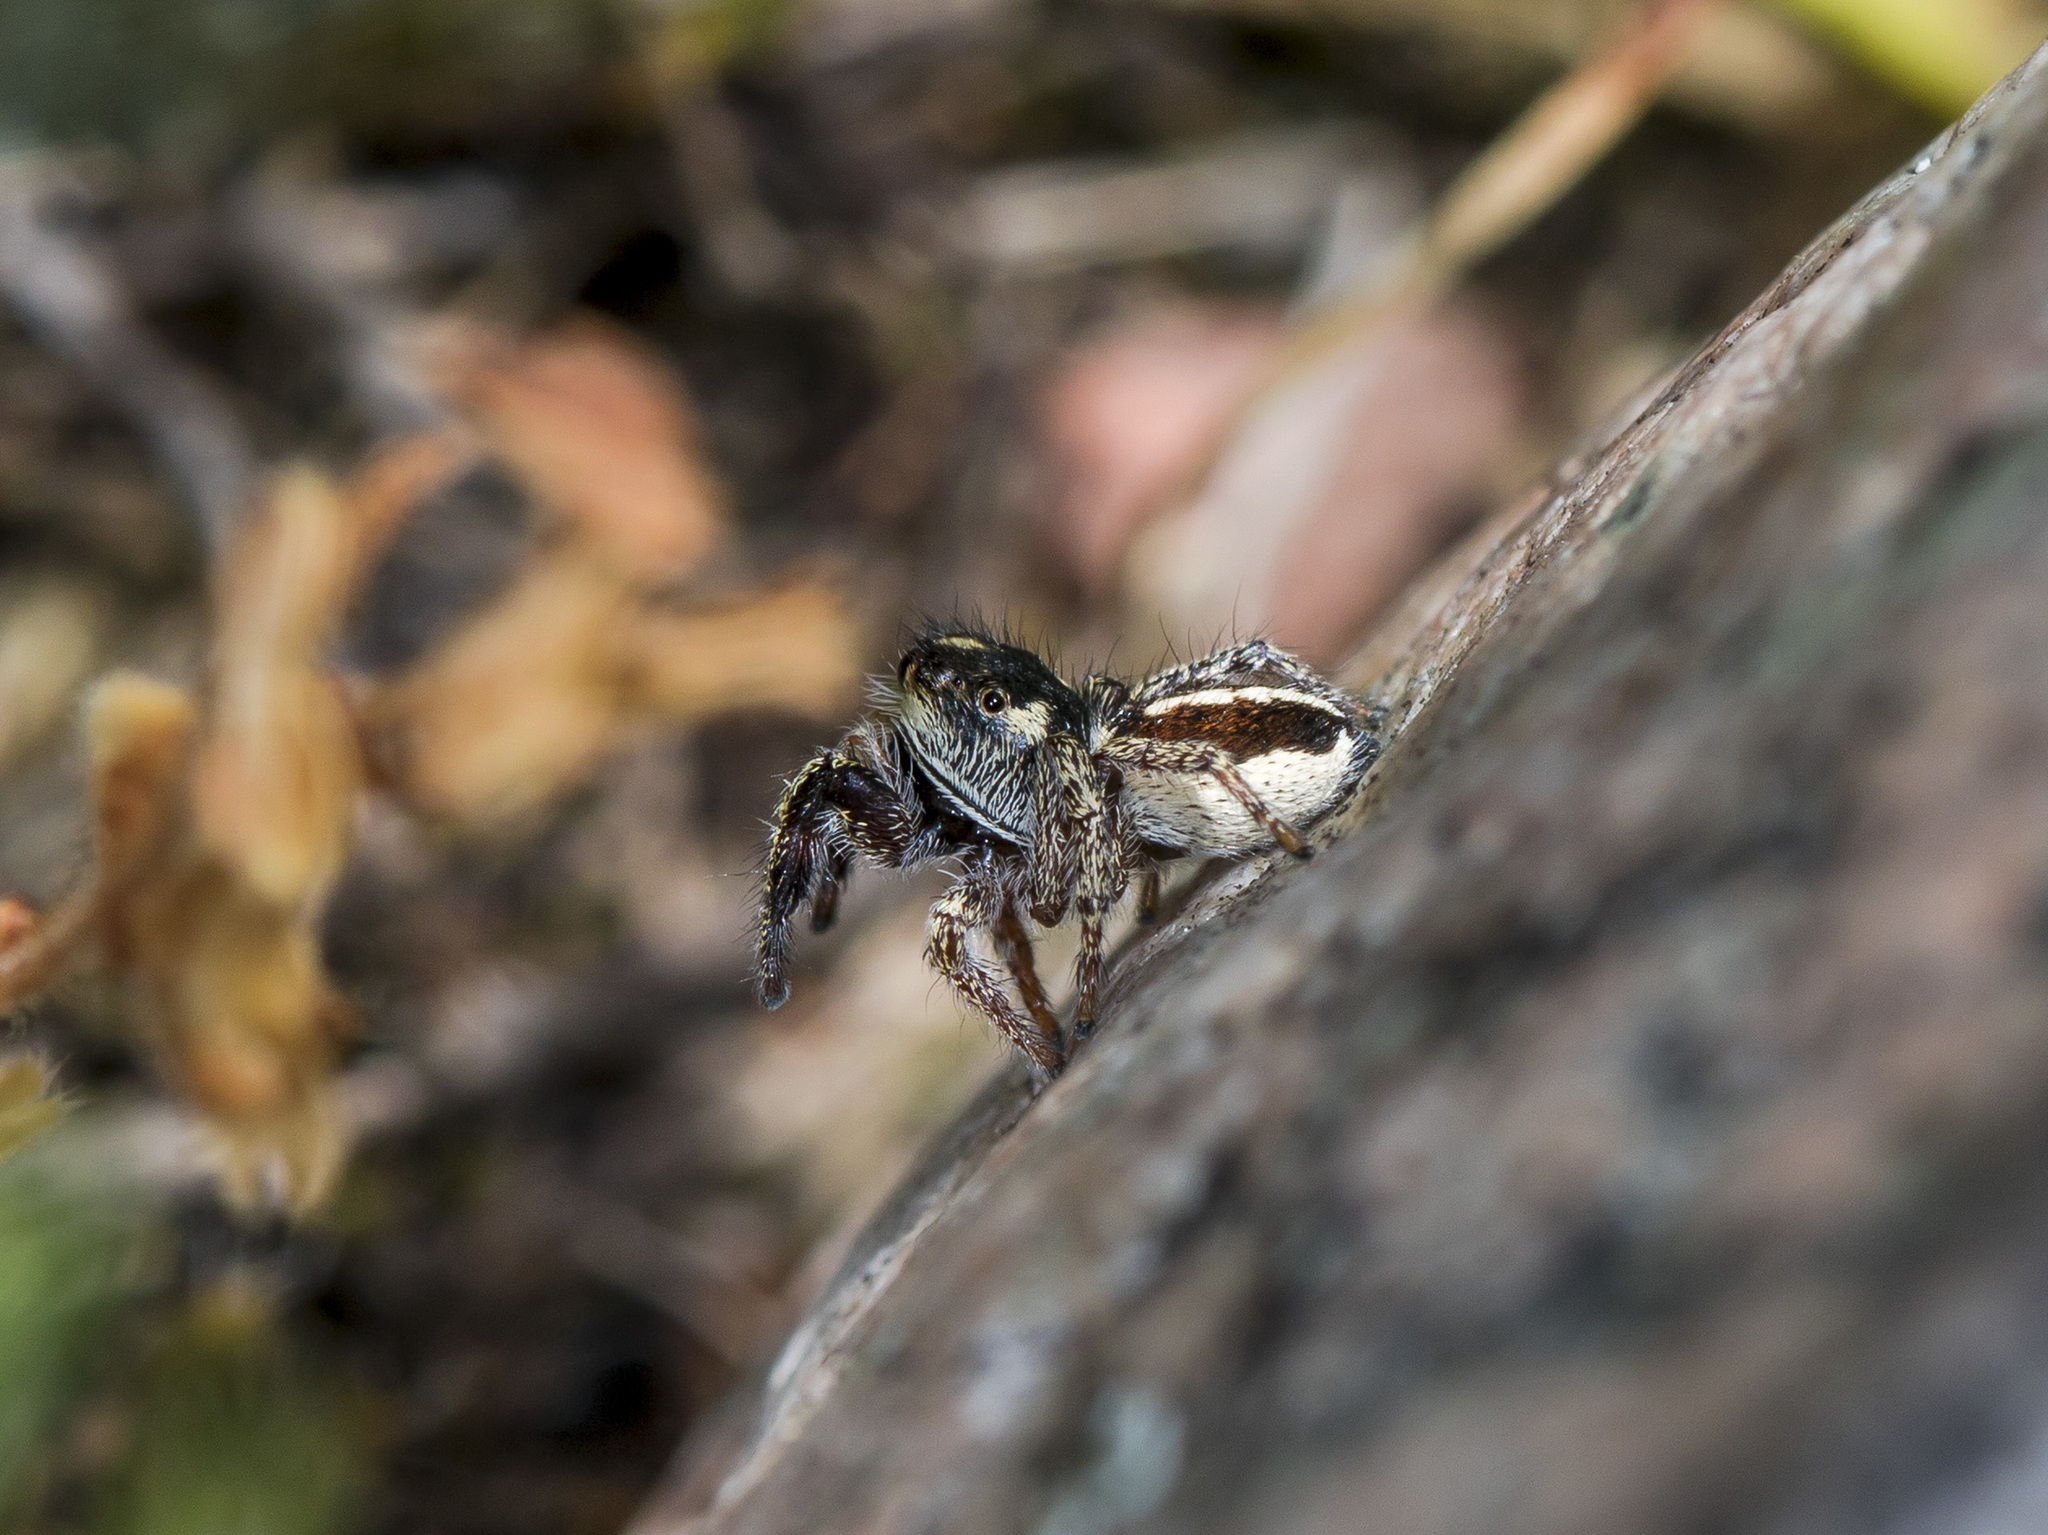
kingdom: Animalia
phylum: Arthropoda
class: Arachnida
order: Araneae
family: Salticidae
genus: Pellenes
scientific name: Pellenes allegrii
